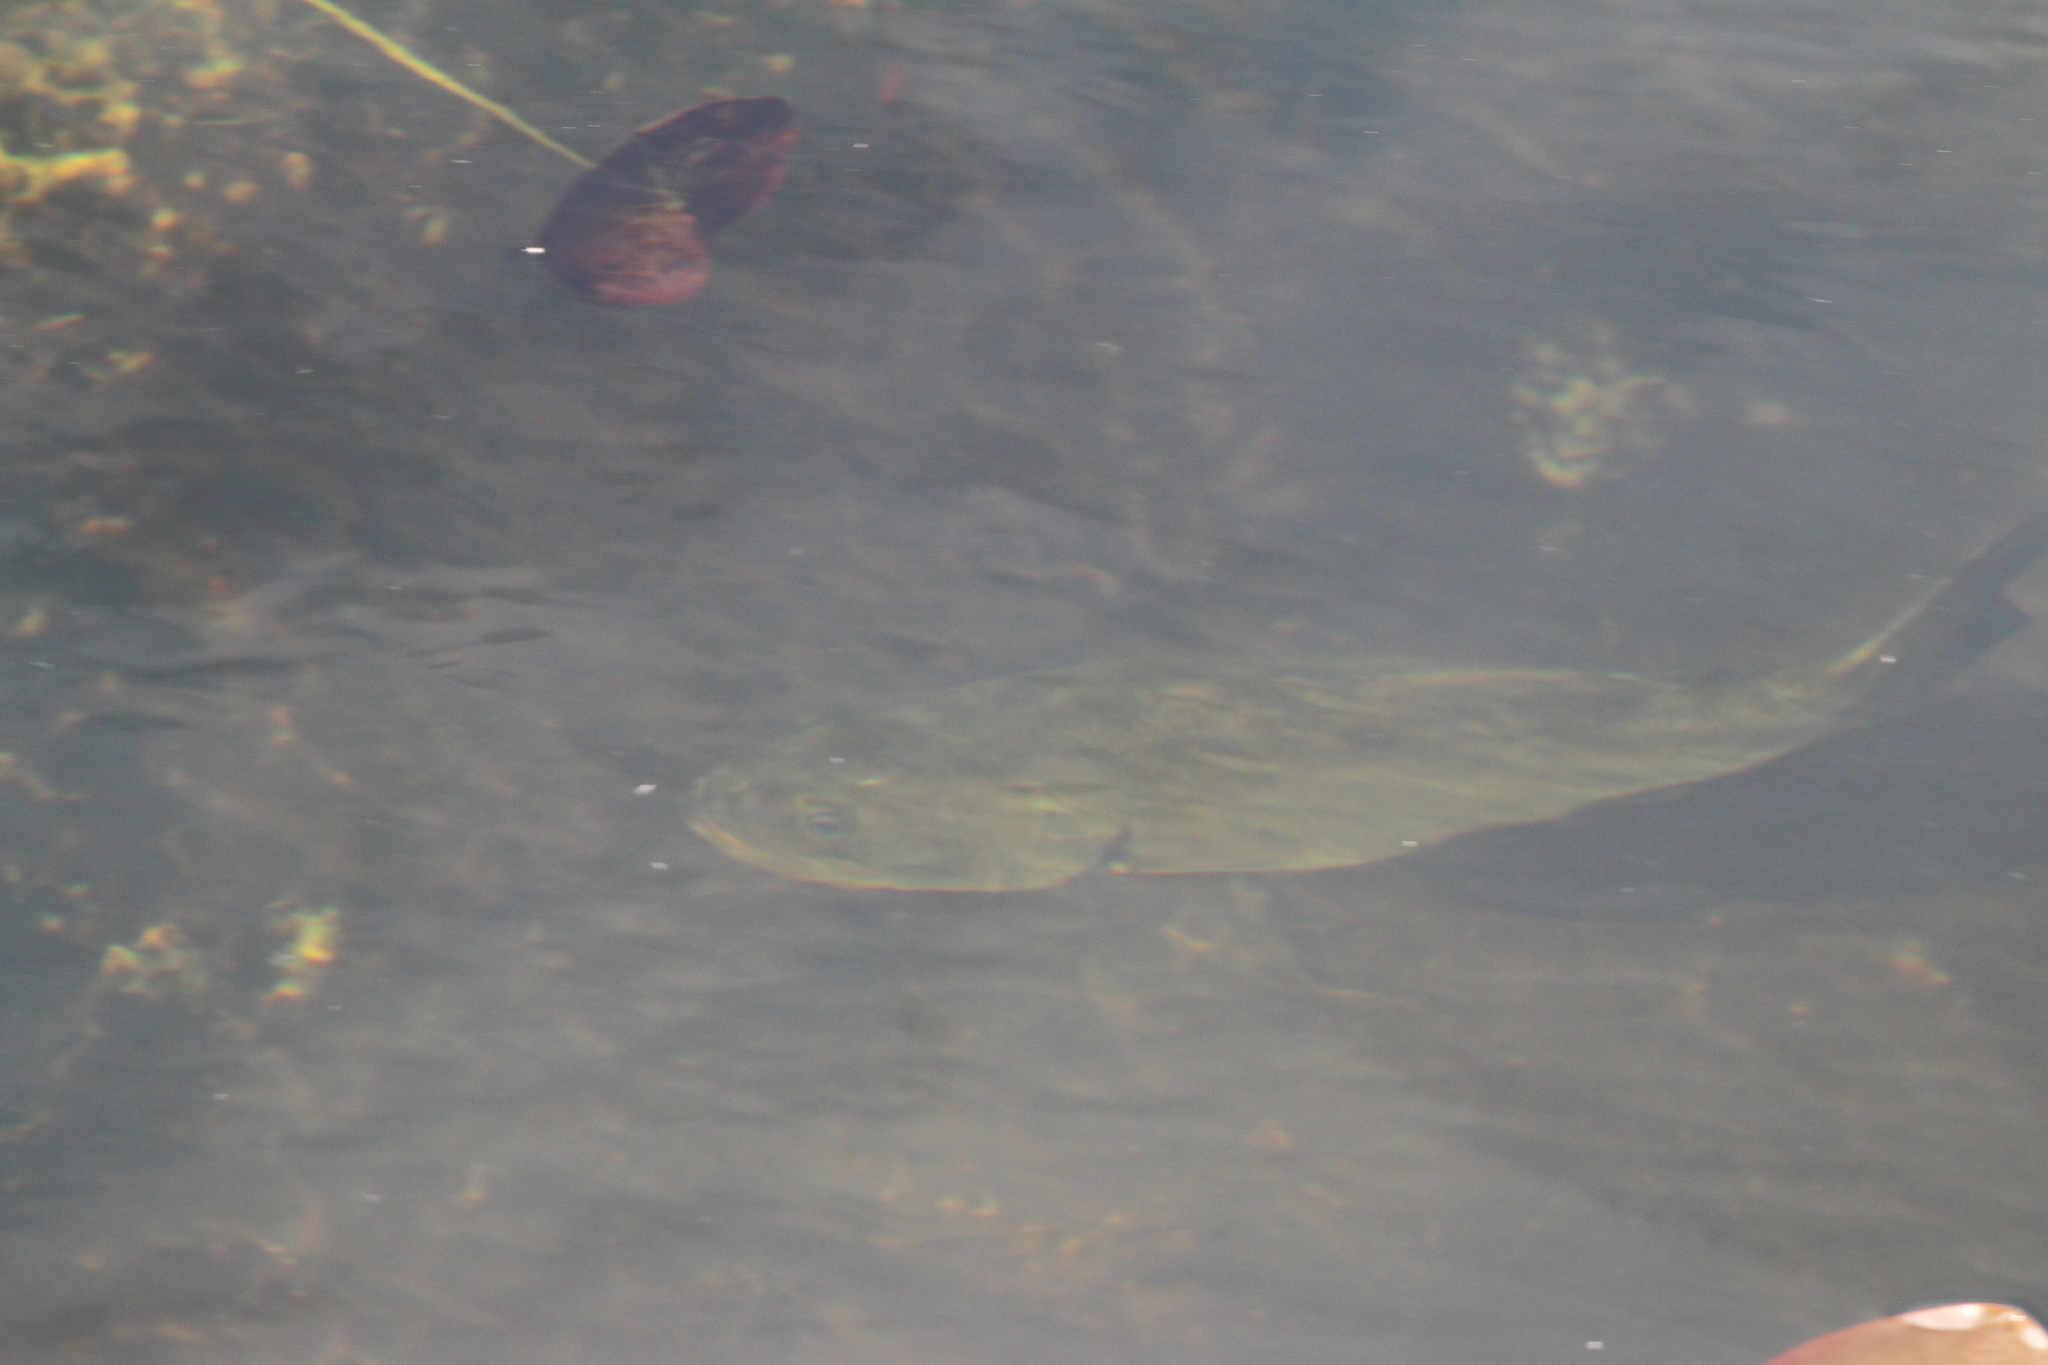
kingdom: Animalia
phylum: Chordata
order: Perciformes
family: Centrarchidae
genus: Micropterus
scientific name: Micropterus salmoides
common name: Largemouth bass
